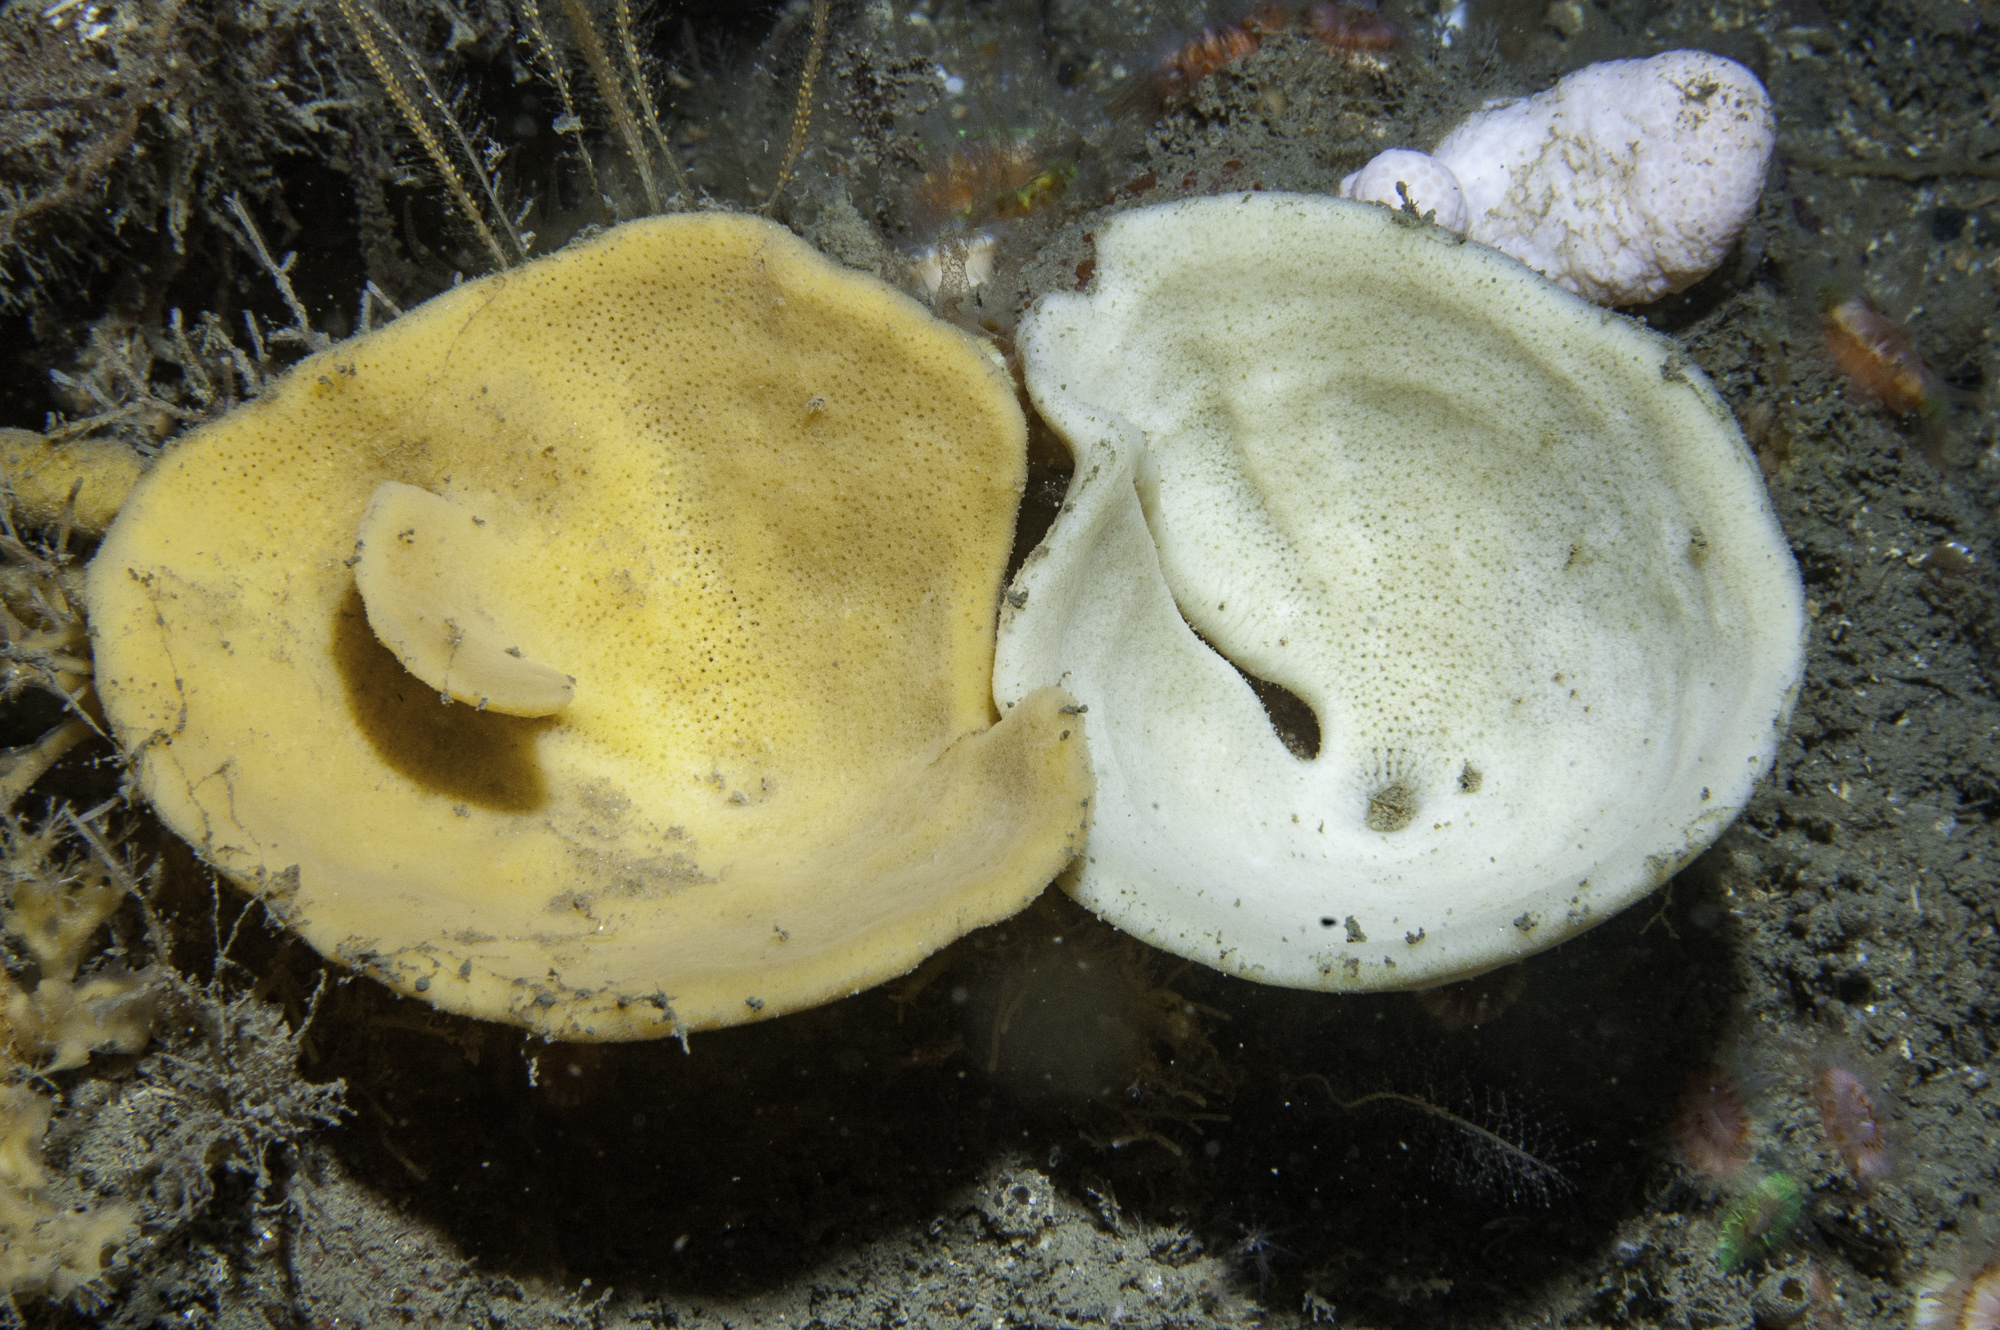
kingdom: Animalia
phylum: Porifera
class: Demospongiae
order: Axinellida
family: Axinellidae
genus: Axinella
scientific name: Axinella infundibuliformis
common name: North atlantic cup sponge
